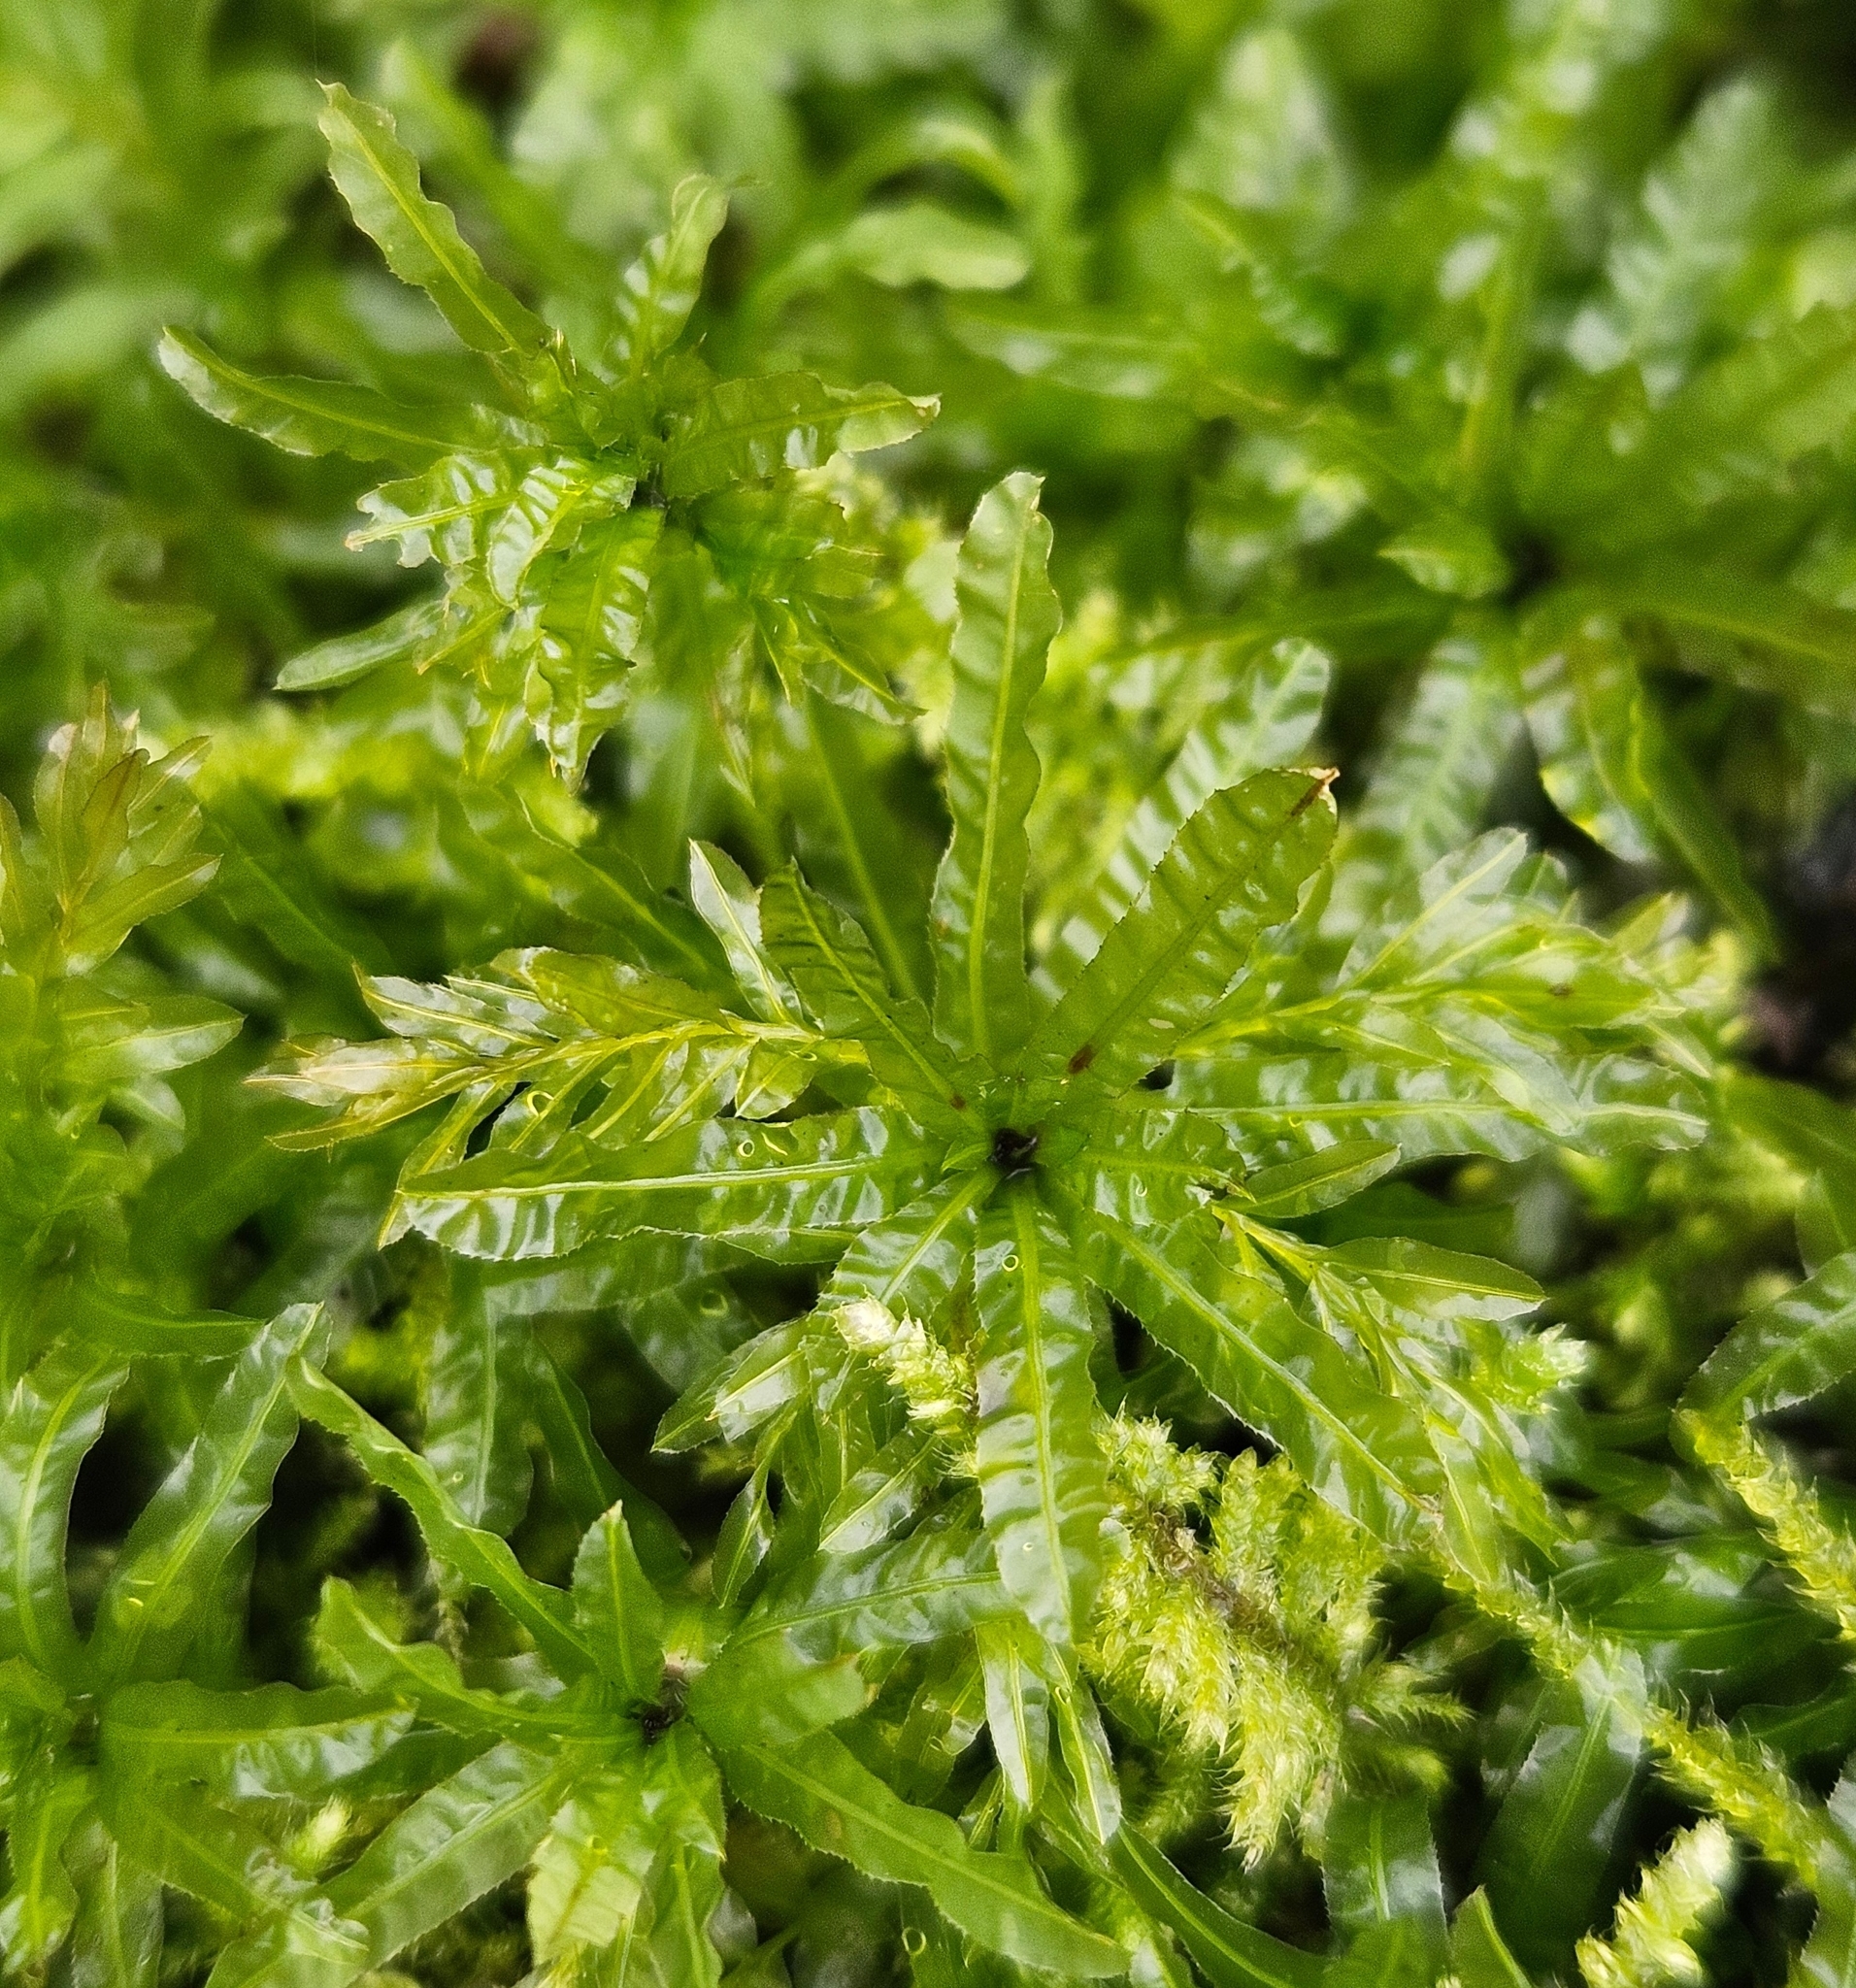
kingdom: Plantae
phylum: Bryophyta
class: Bryopsida
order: Bryales
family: Mniaceae
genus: Plagiomnium
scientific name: Plagiomnium undulatum
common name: Hart's-tongue thyme-moss
